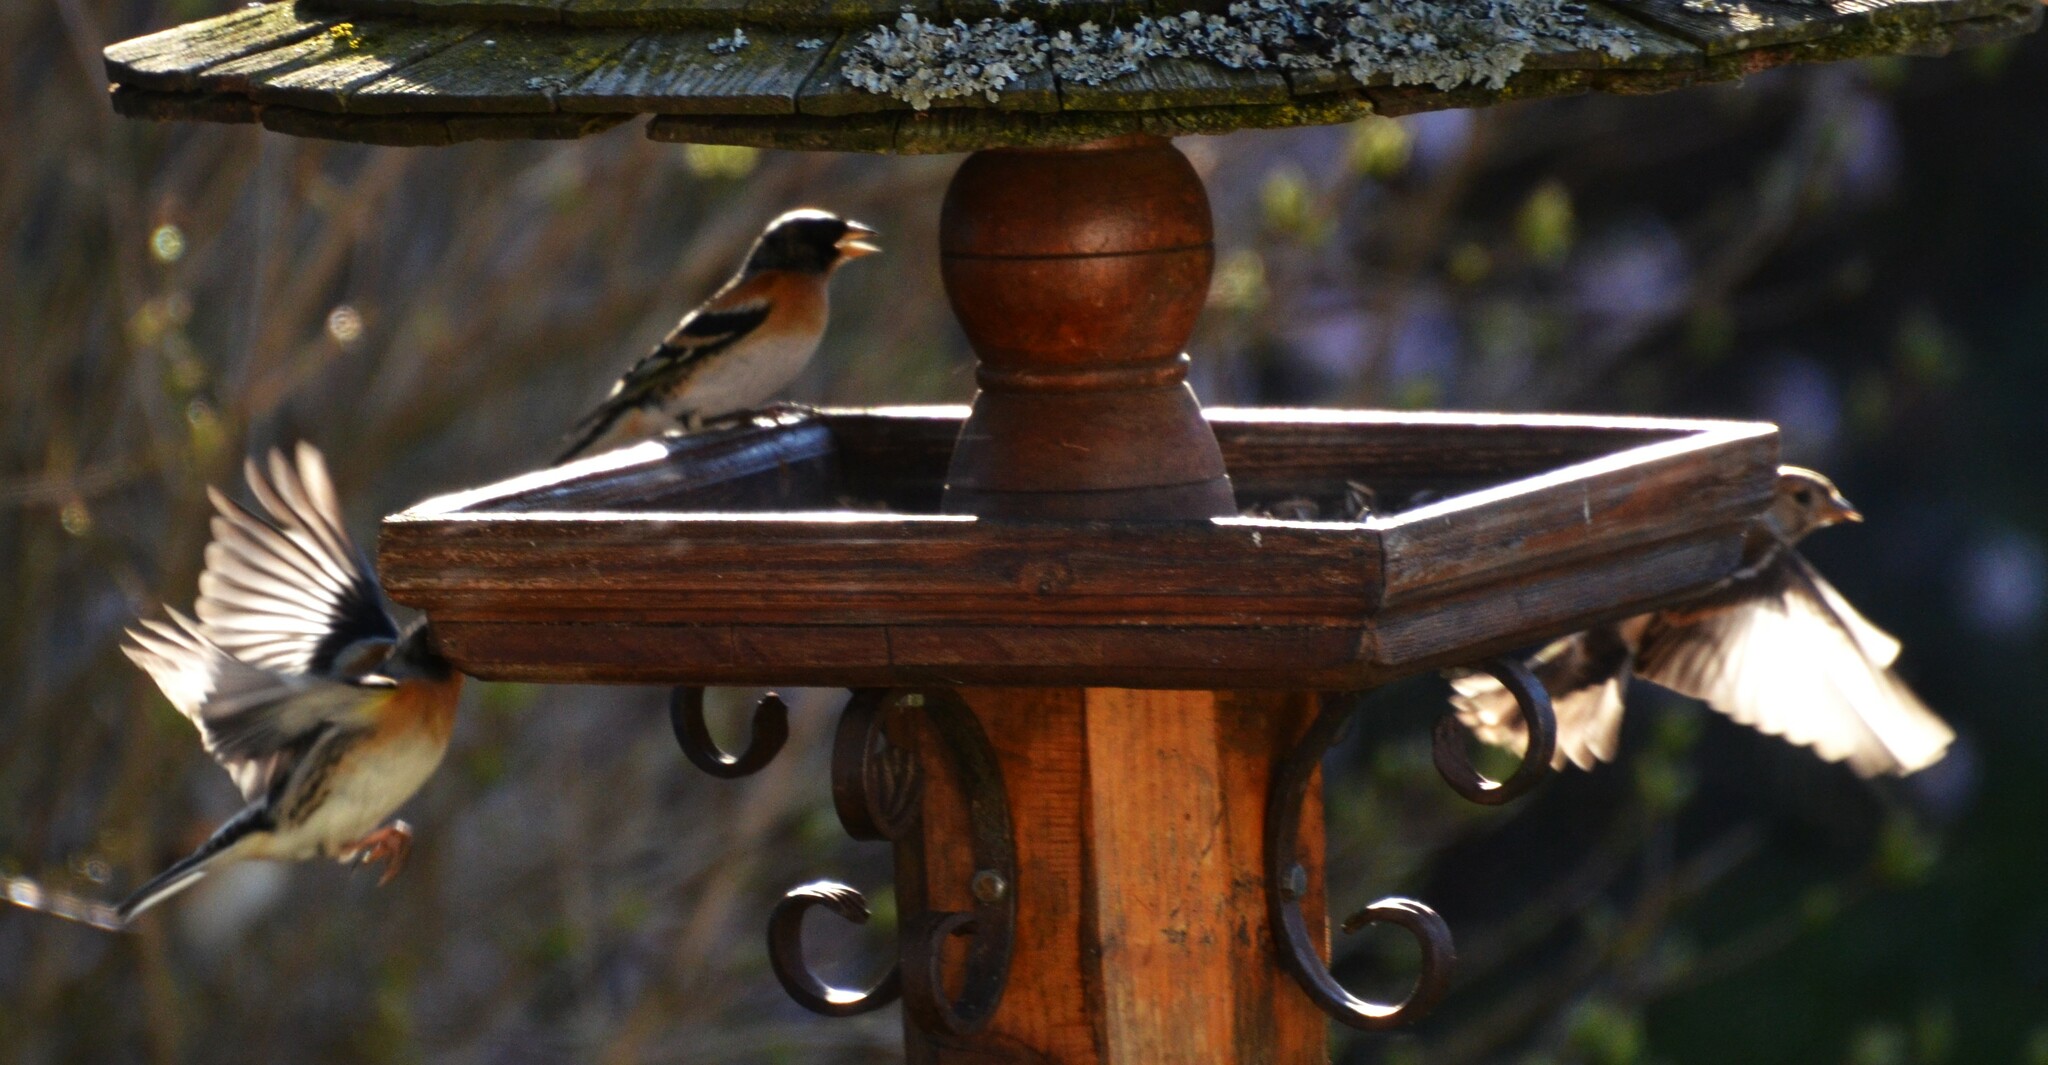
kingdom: Animalia
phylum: Chordata
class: Aves
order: Passeriformes
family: Fringillidae
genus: Fringilla
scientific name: Fringilla montifringilla
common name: Brambling
